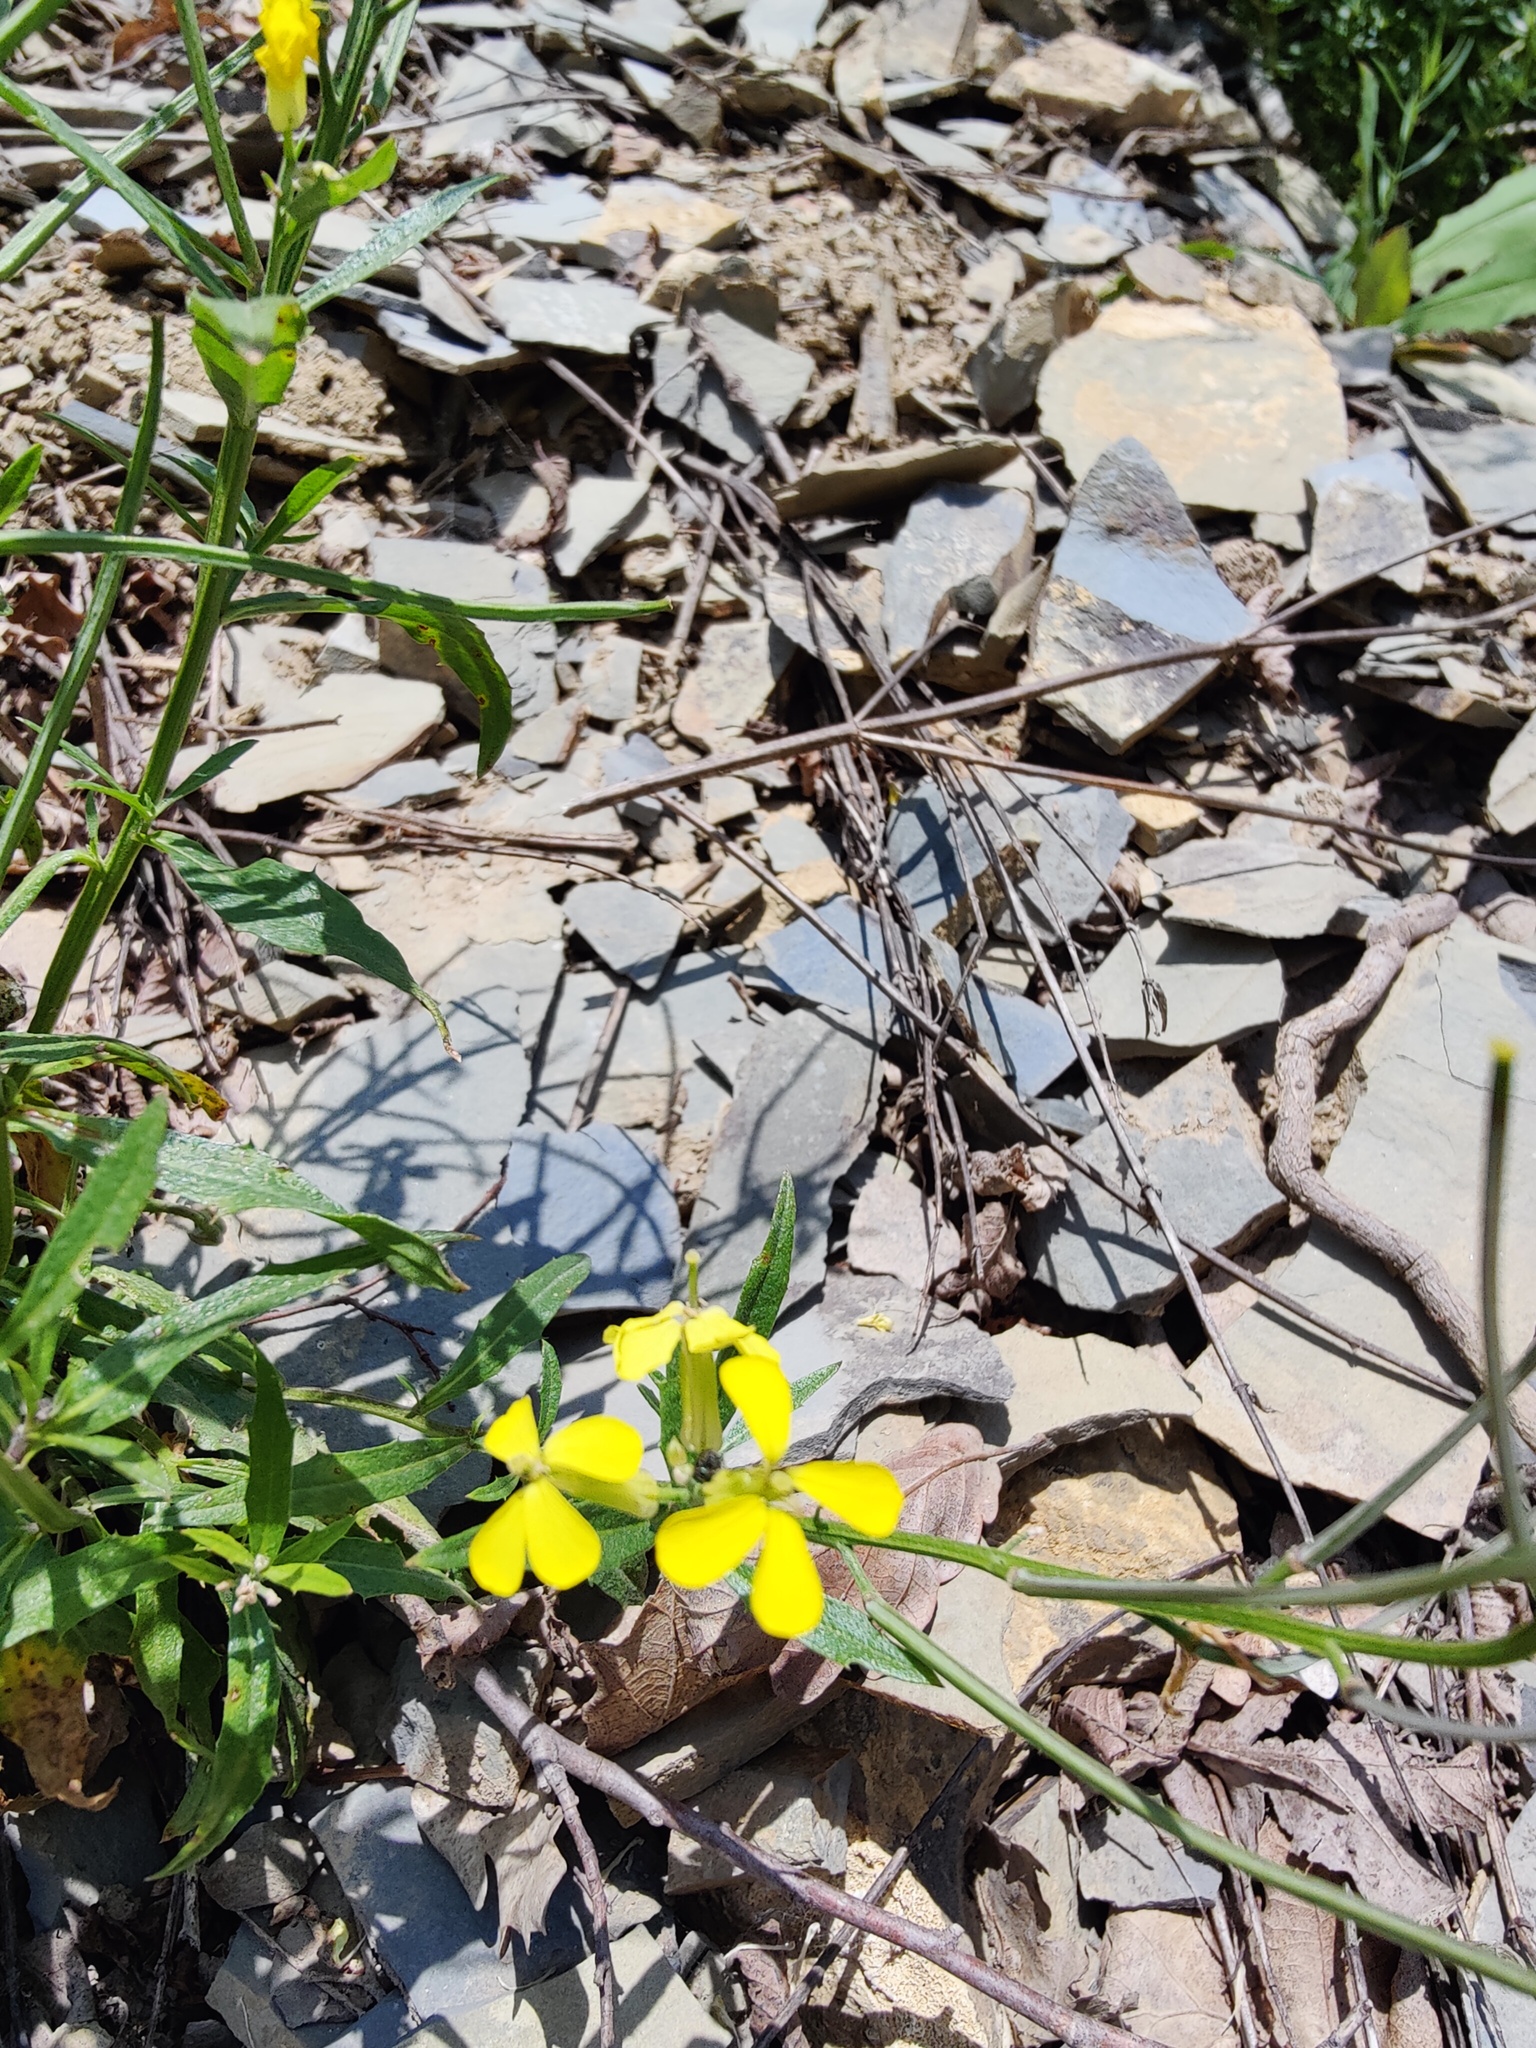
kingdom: Plantae
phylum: Tracheophyta
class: Magnoliopsida
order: Brassicales
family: Brassicaceae
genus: Erysimum
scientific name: Erysimum callicarpum
